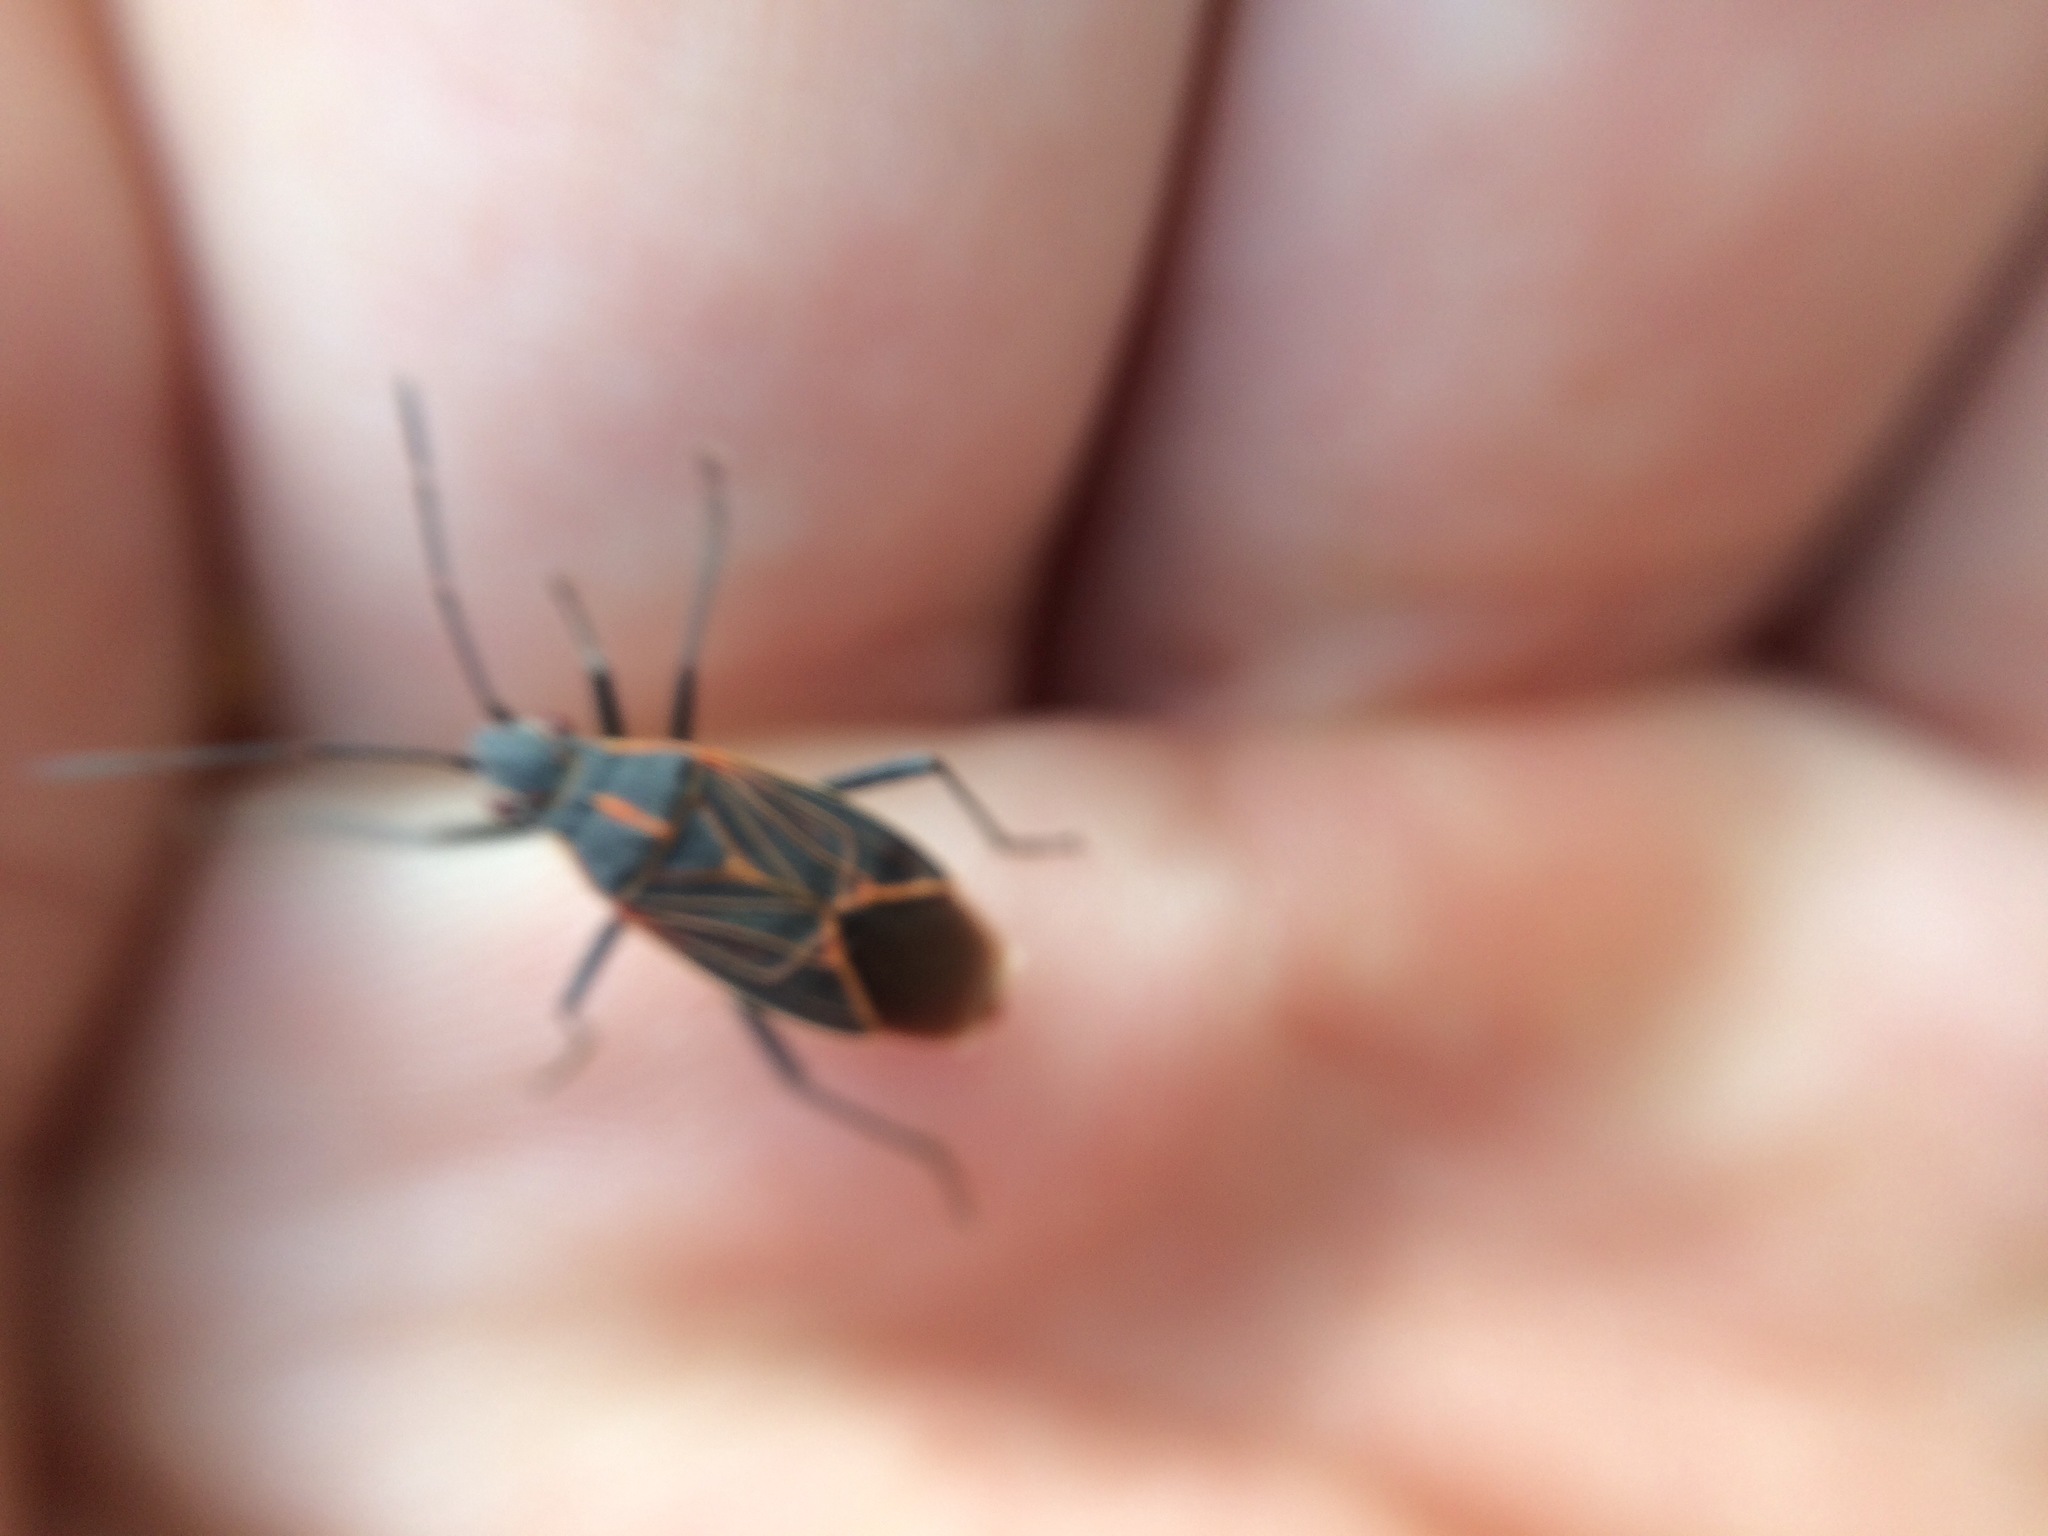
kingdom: Animalia
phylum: Arthropoda
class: Insecta
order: Hemiptera
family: Rhopalidae
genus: Boisea
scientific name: Boisea rubrolineata
